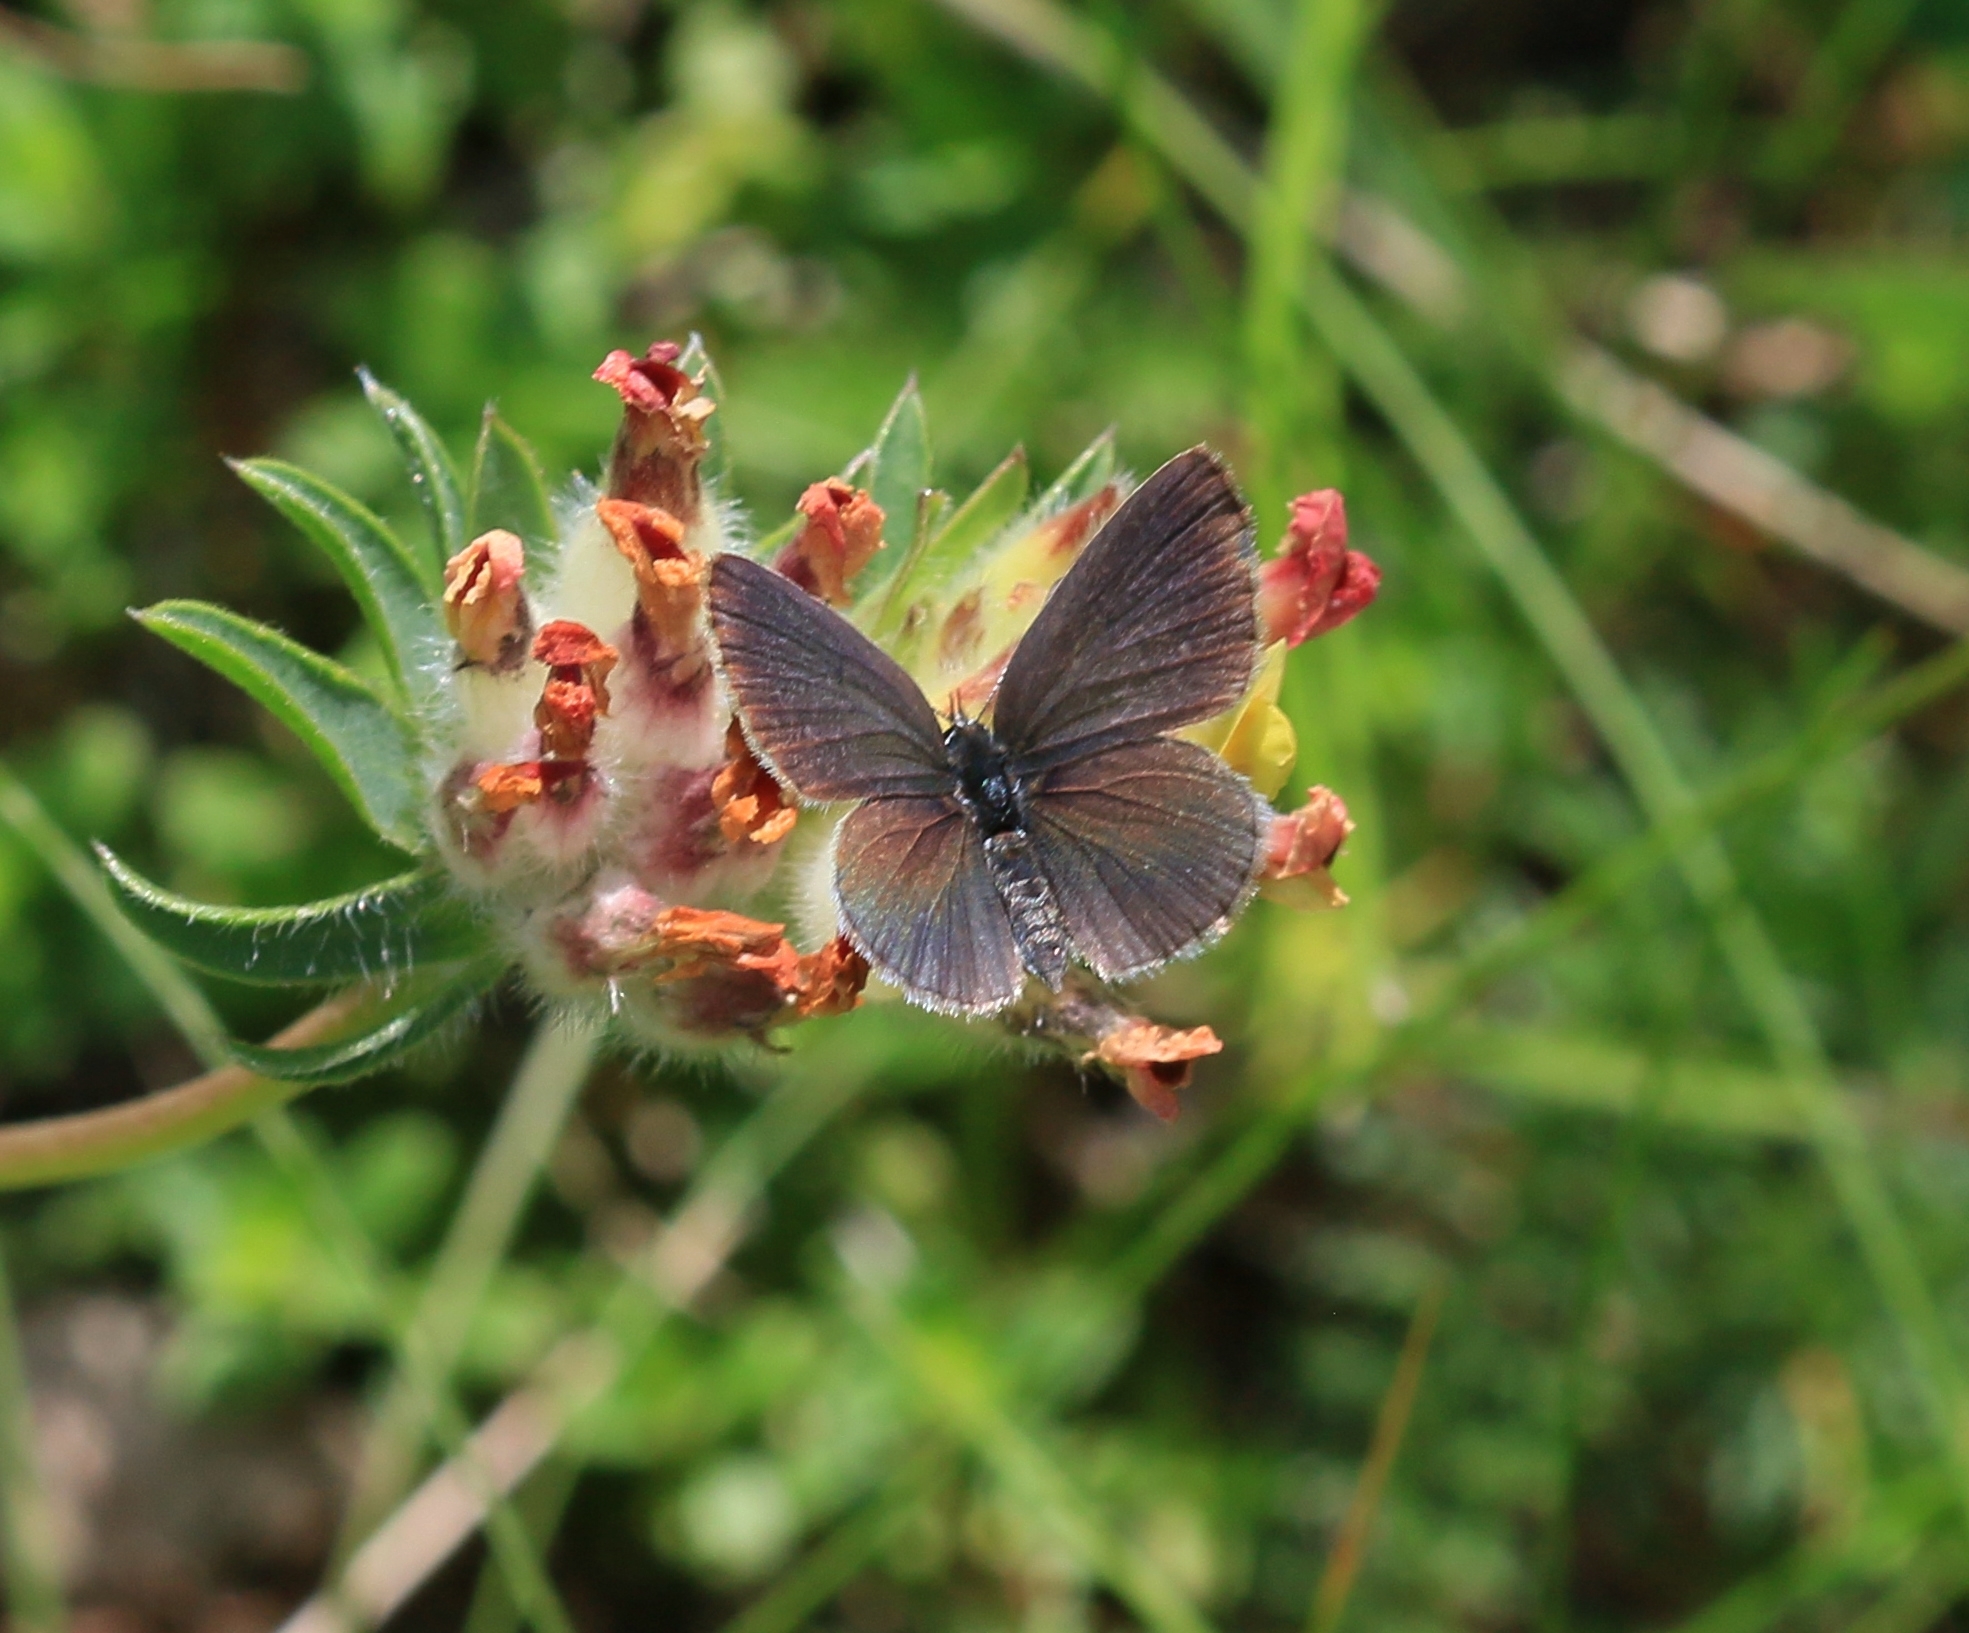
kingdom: Animalia
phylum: Arthropoda
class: Insecta
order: Lepidoptera
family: Lycaenidae
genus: Cupido
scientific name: Cupido minimus
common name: Small blue
